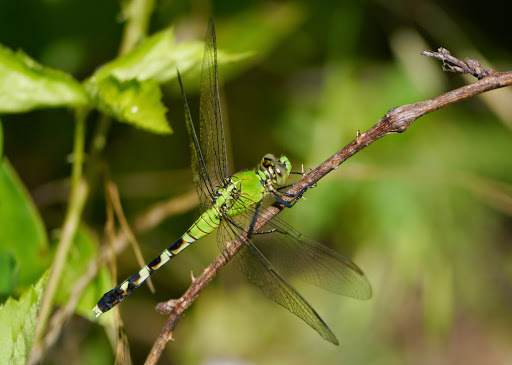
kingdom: Animalia
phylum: Arthropoda
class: Insecta
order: Odonata
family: Libellulidae
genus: Erythemis
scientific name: Erythemis simplicicollis
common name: Eastern pondhawk
